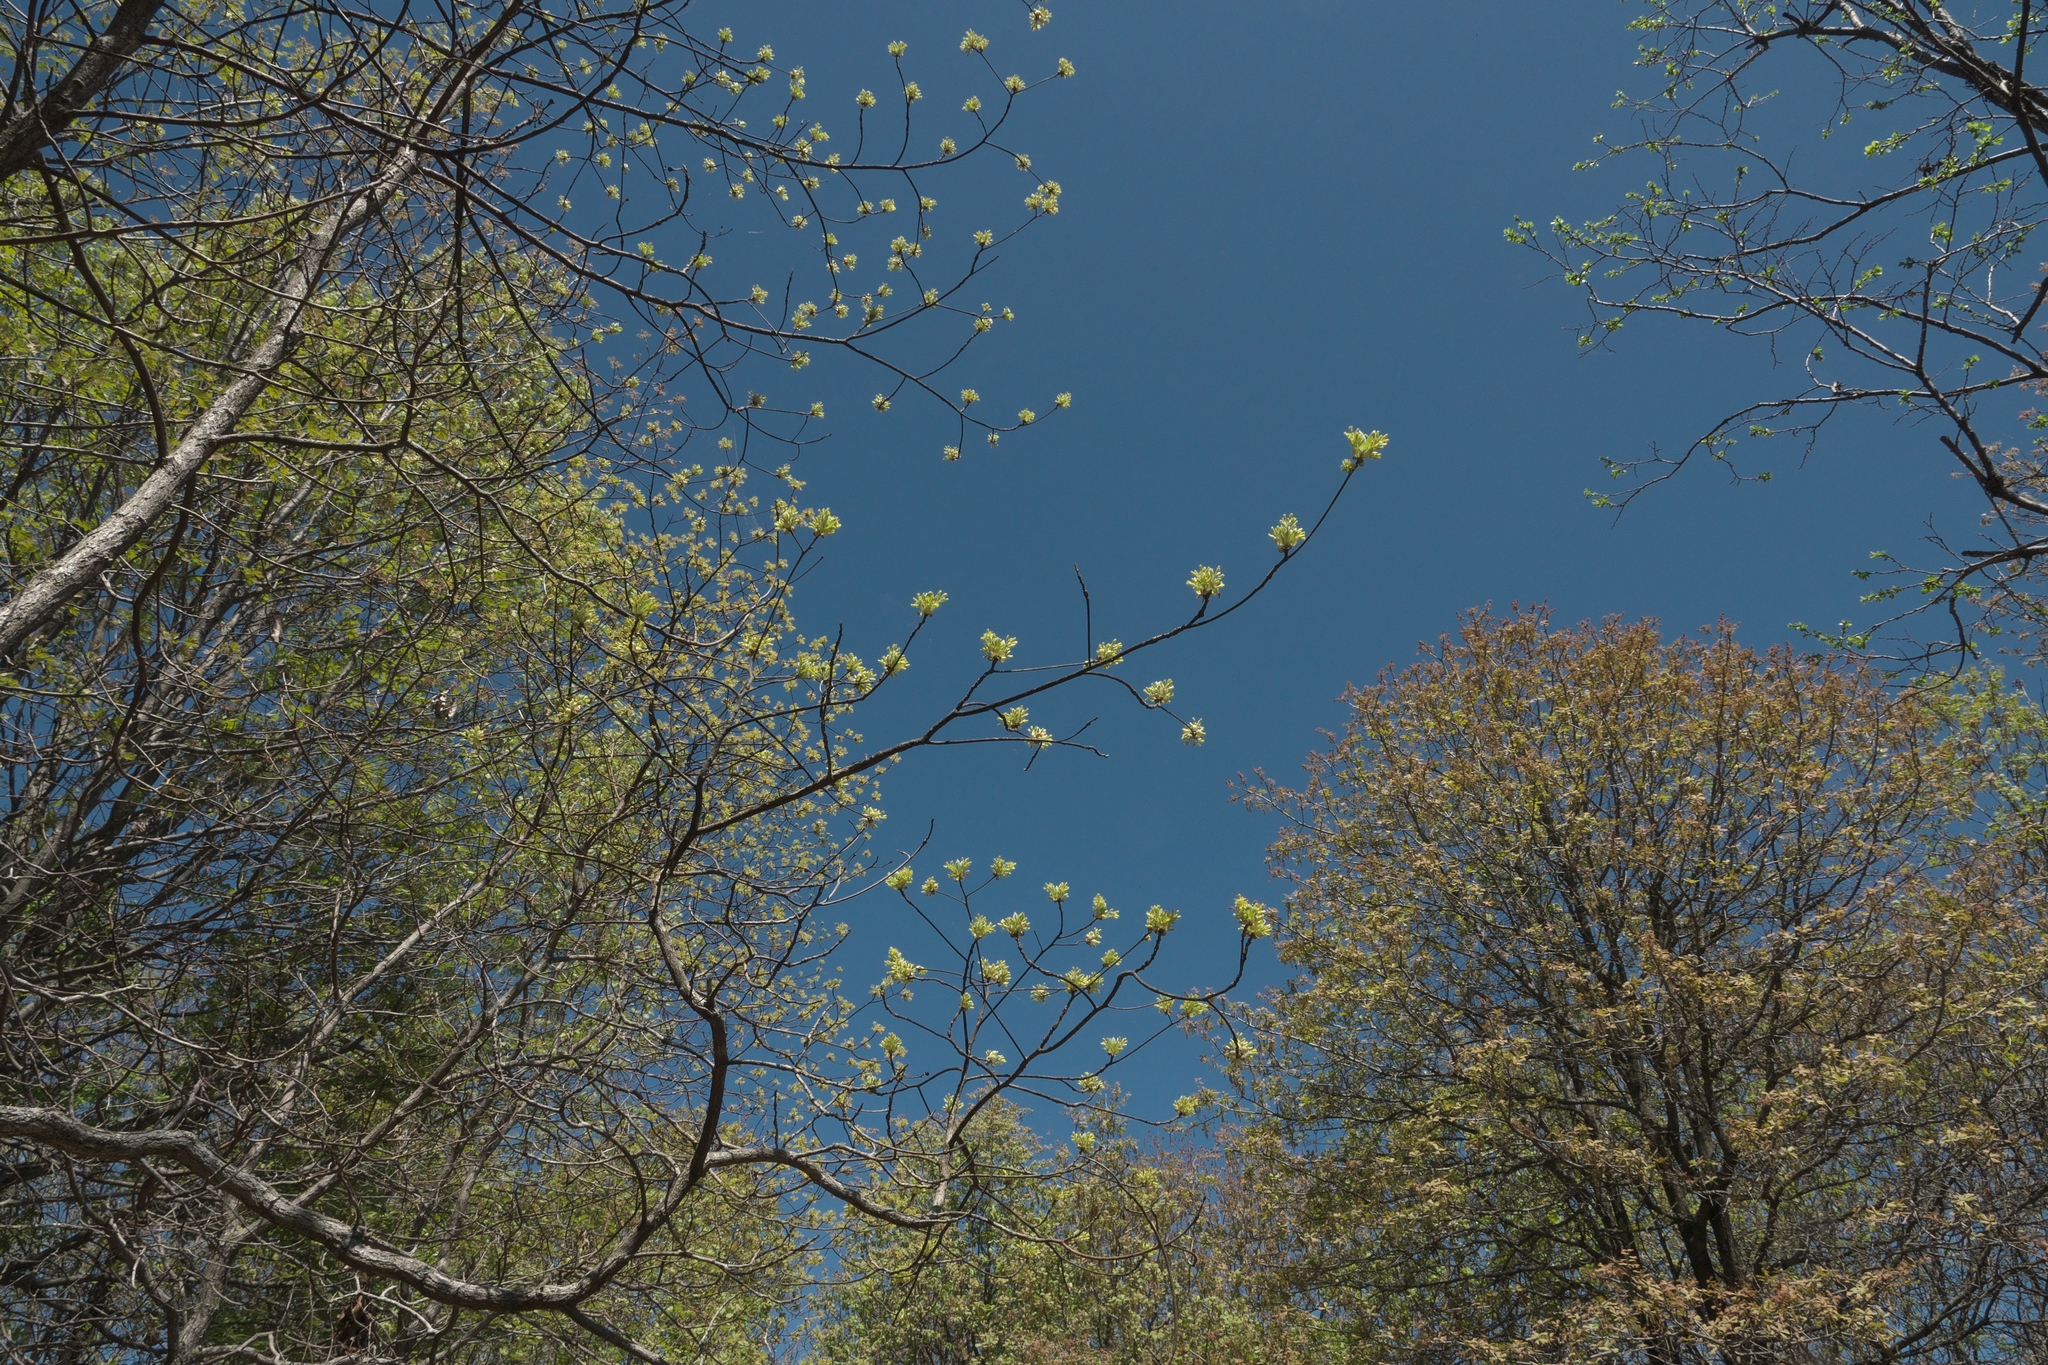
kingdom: Plantae
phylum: Tracheophyta
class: Magnoliopsida
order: Laurales
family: Lauraceae
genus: Sassafras
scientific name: Sassafras albidum
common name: Sassafras
